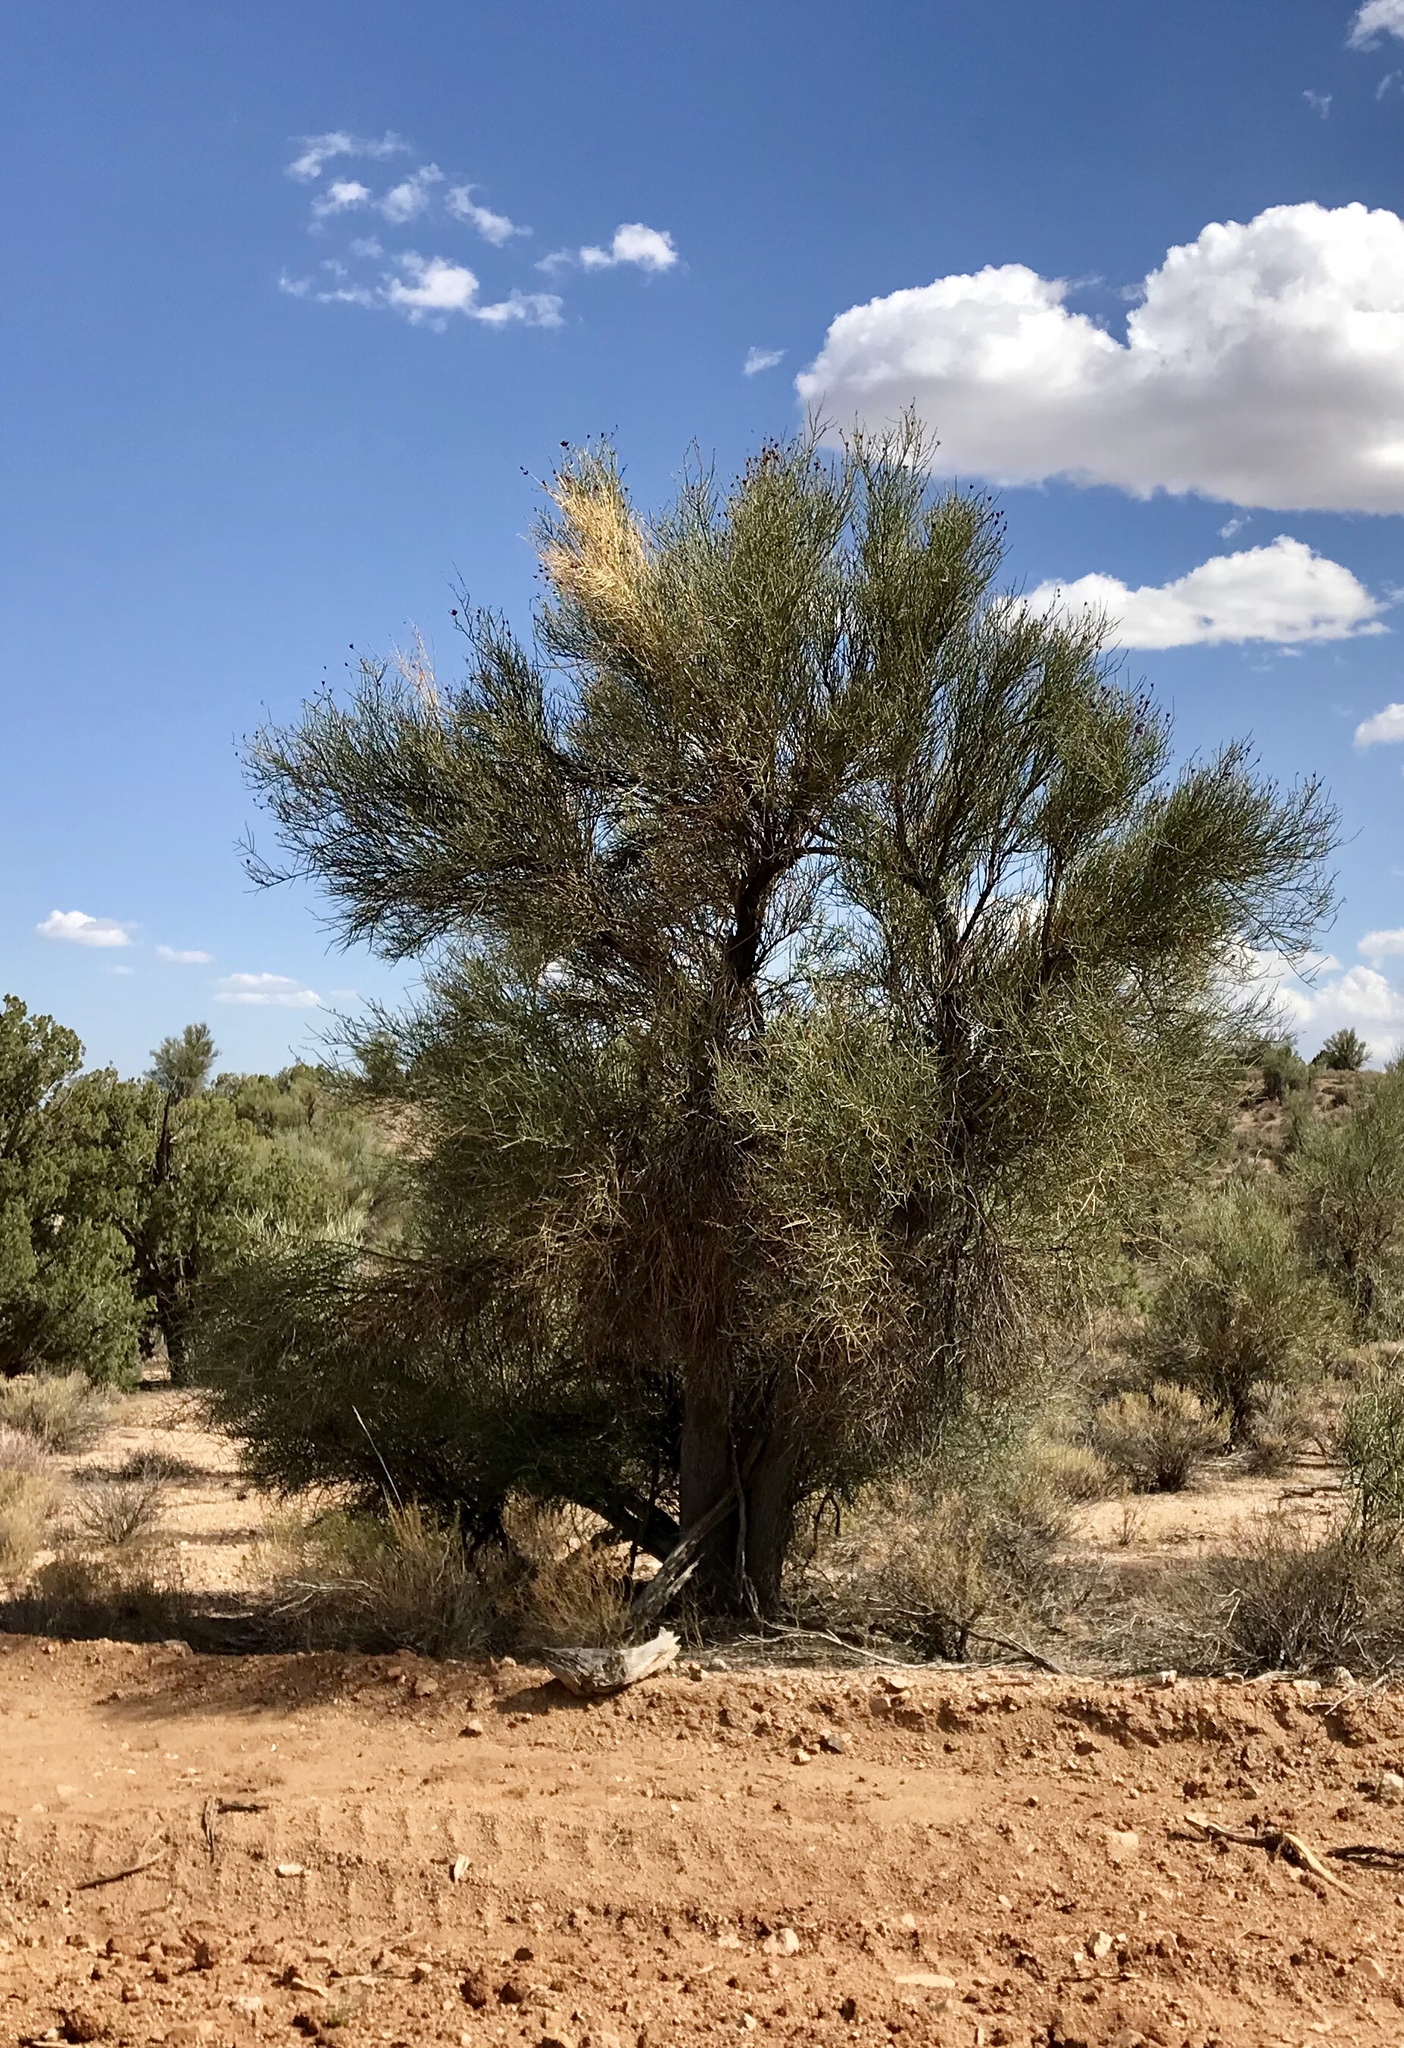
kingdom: Plantae
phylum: Tracheophyta
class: Magnoliopsida
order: Celastrales
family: Celastraceae
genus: Canotia
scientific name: Canotia holacantha
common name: Crucifixion thorns
